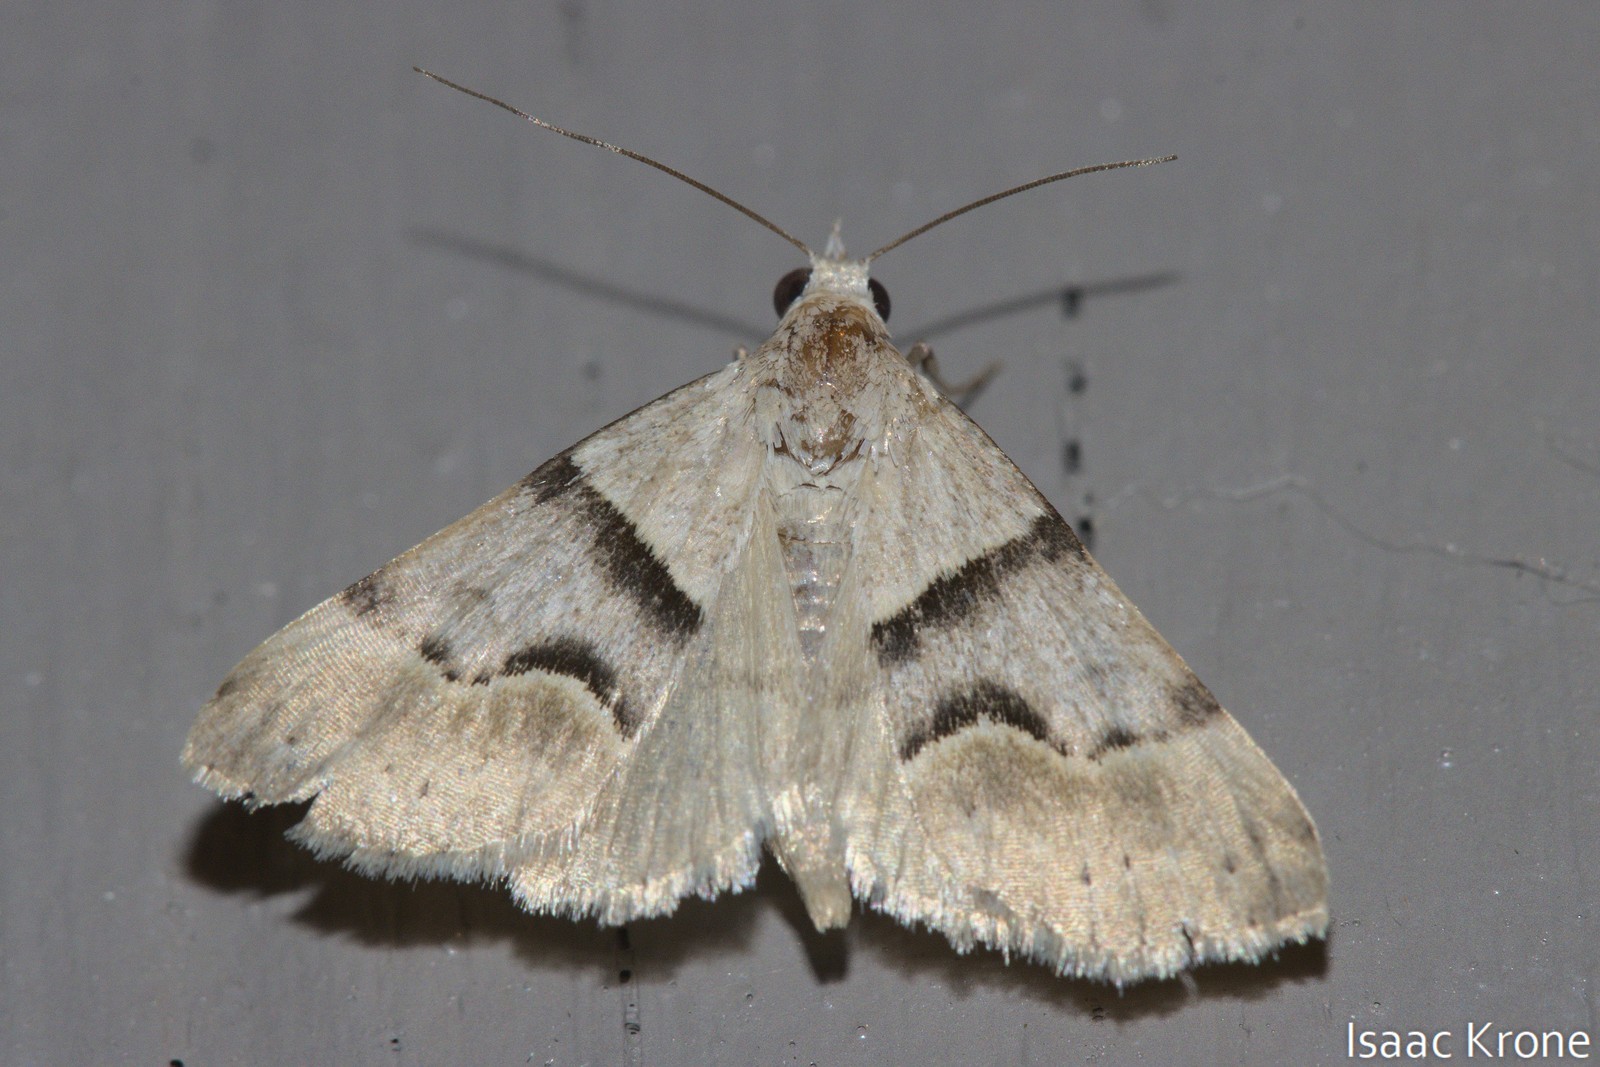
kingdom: Animalia
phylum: Arthropoda
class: Insecta
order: Lepidoptera
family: Erebidae
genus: Hemeroplanis
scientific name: Hemeroplanis incusalis
